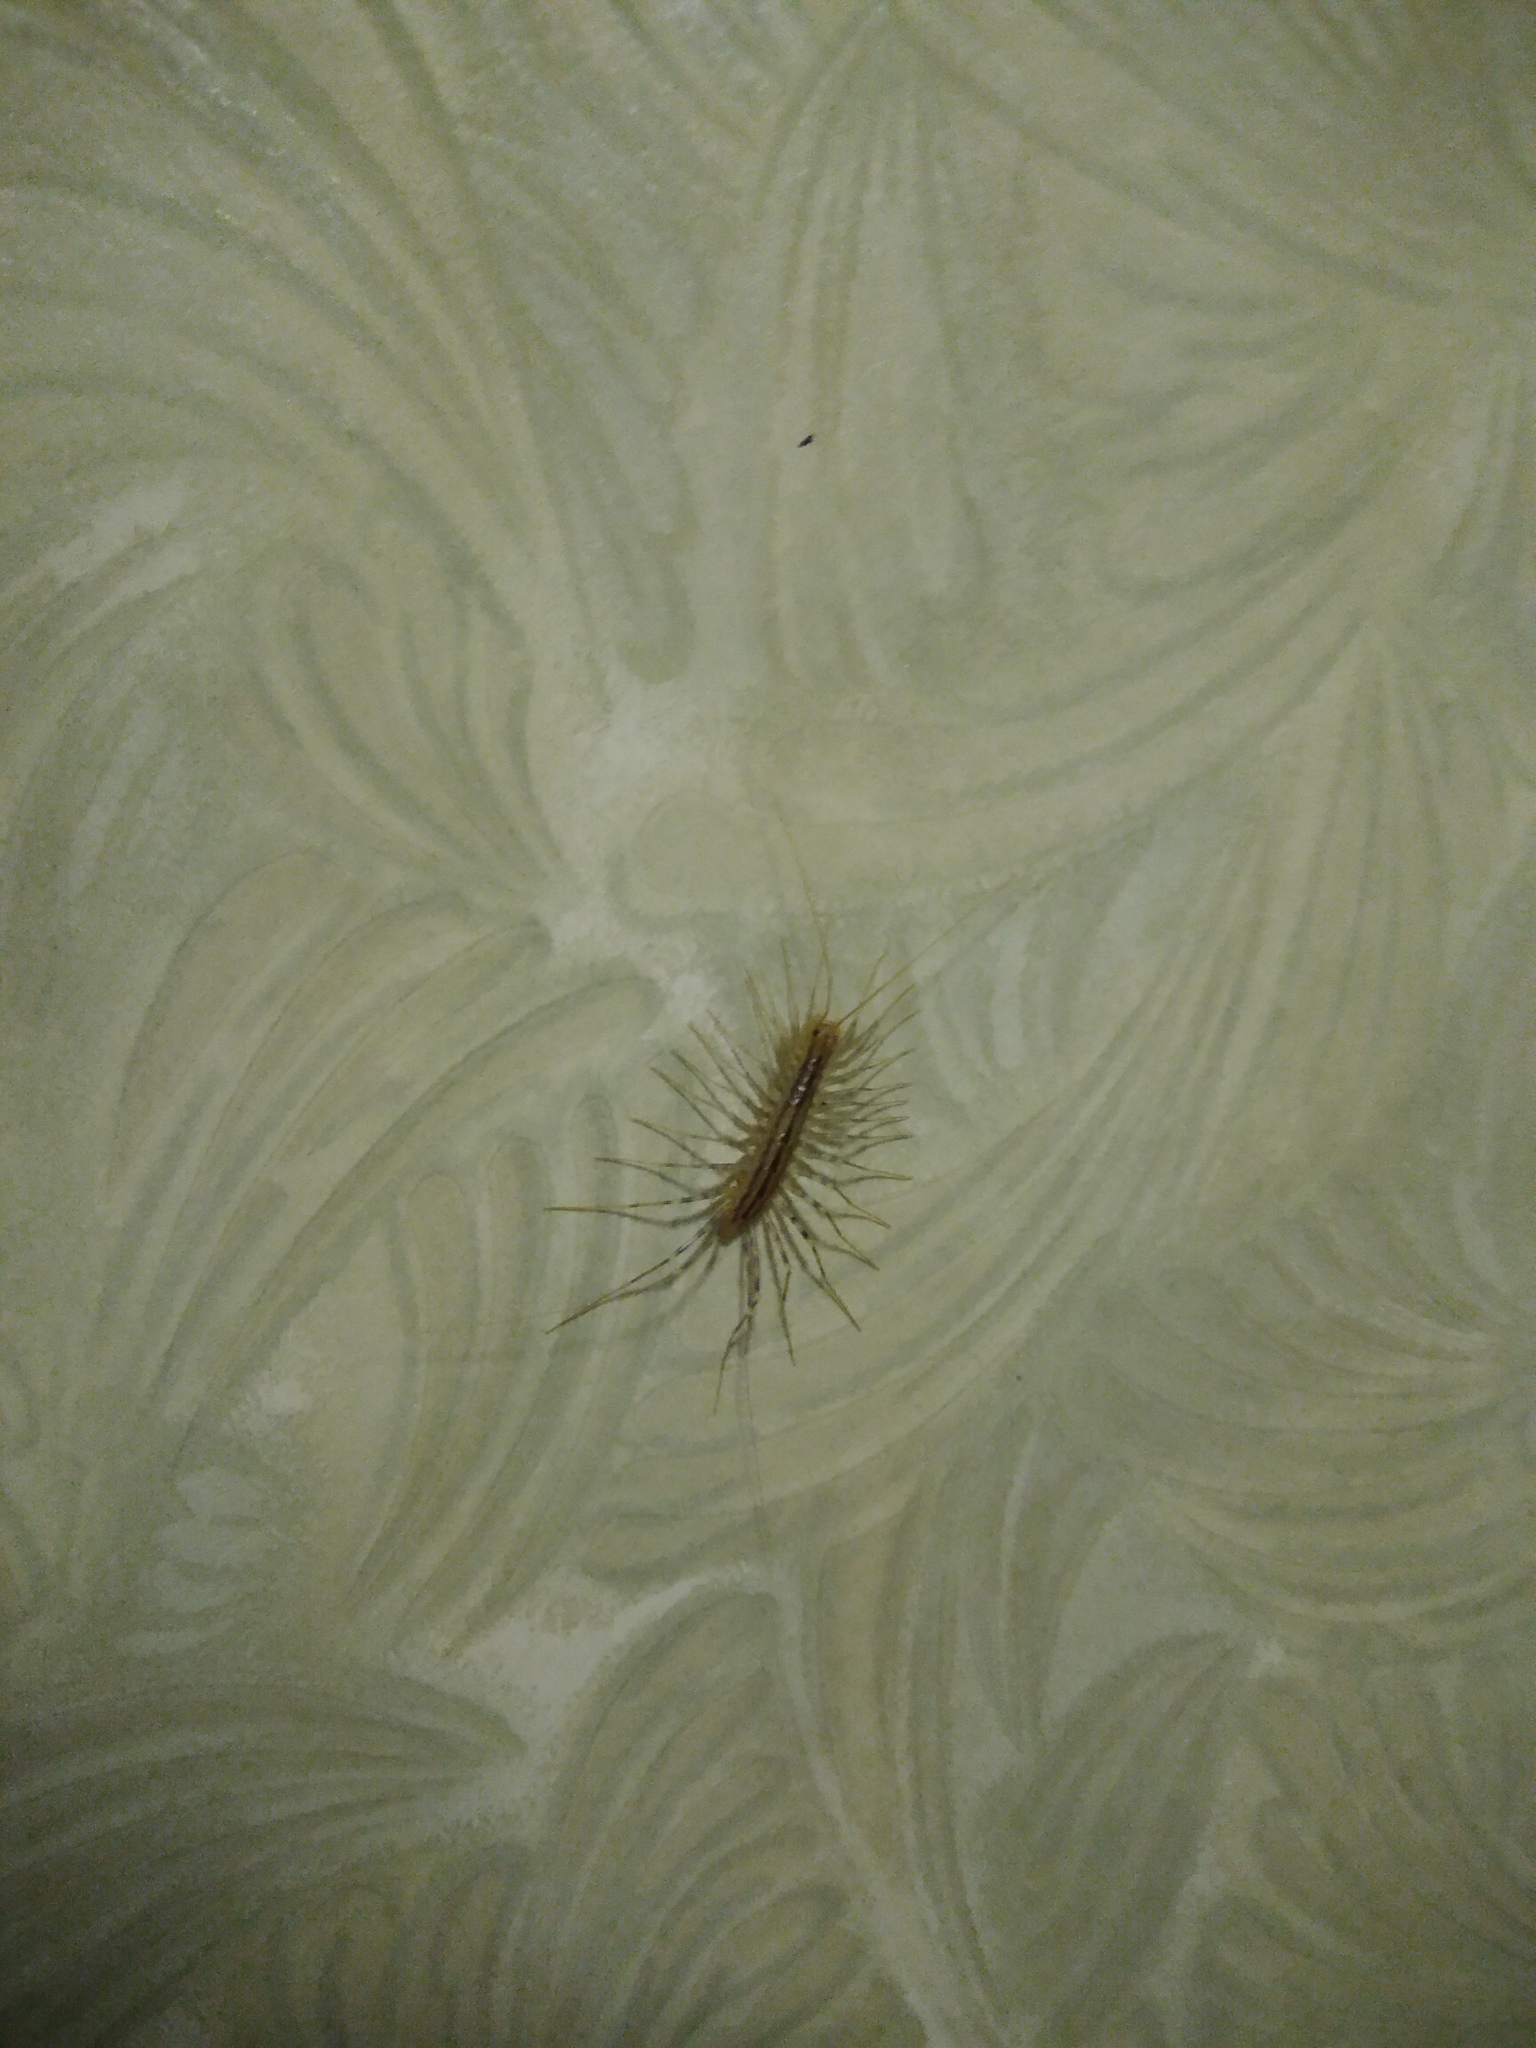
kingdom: Animalia
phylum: Arthropoda
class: Chilopoda
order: Scutigeromorpha
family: Scutigeridae
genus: Scutigera
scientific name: Scutigera coleoptrata
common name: House centipede
